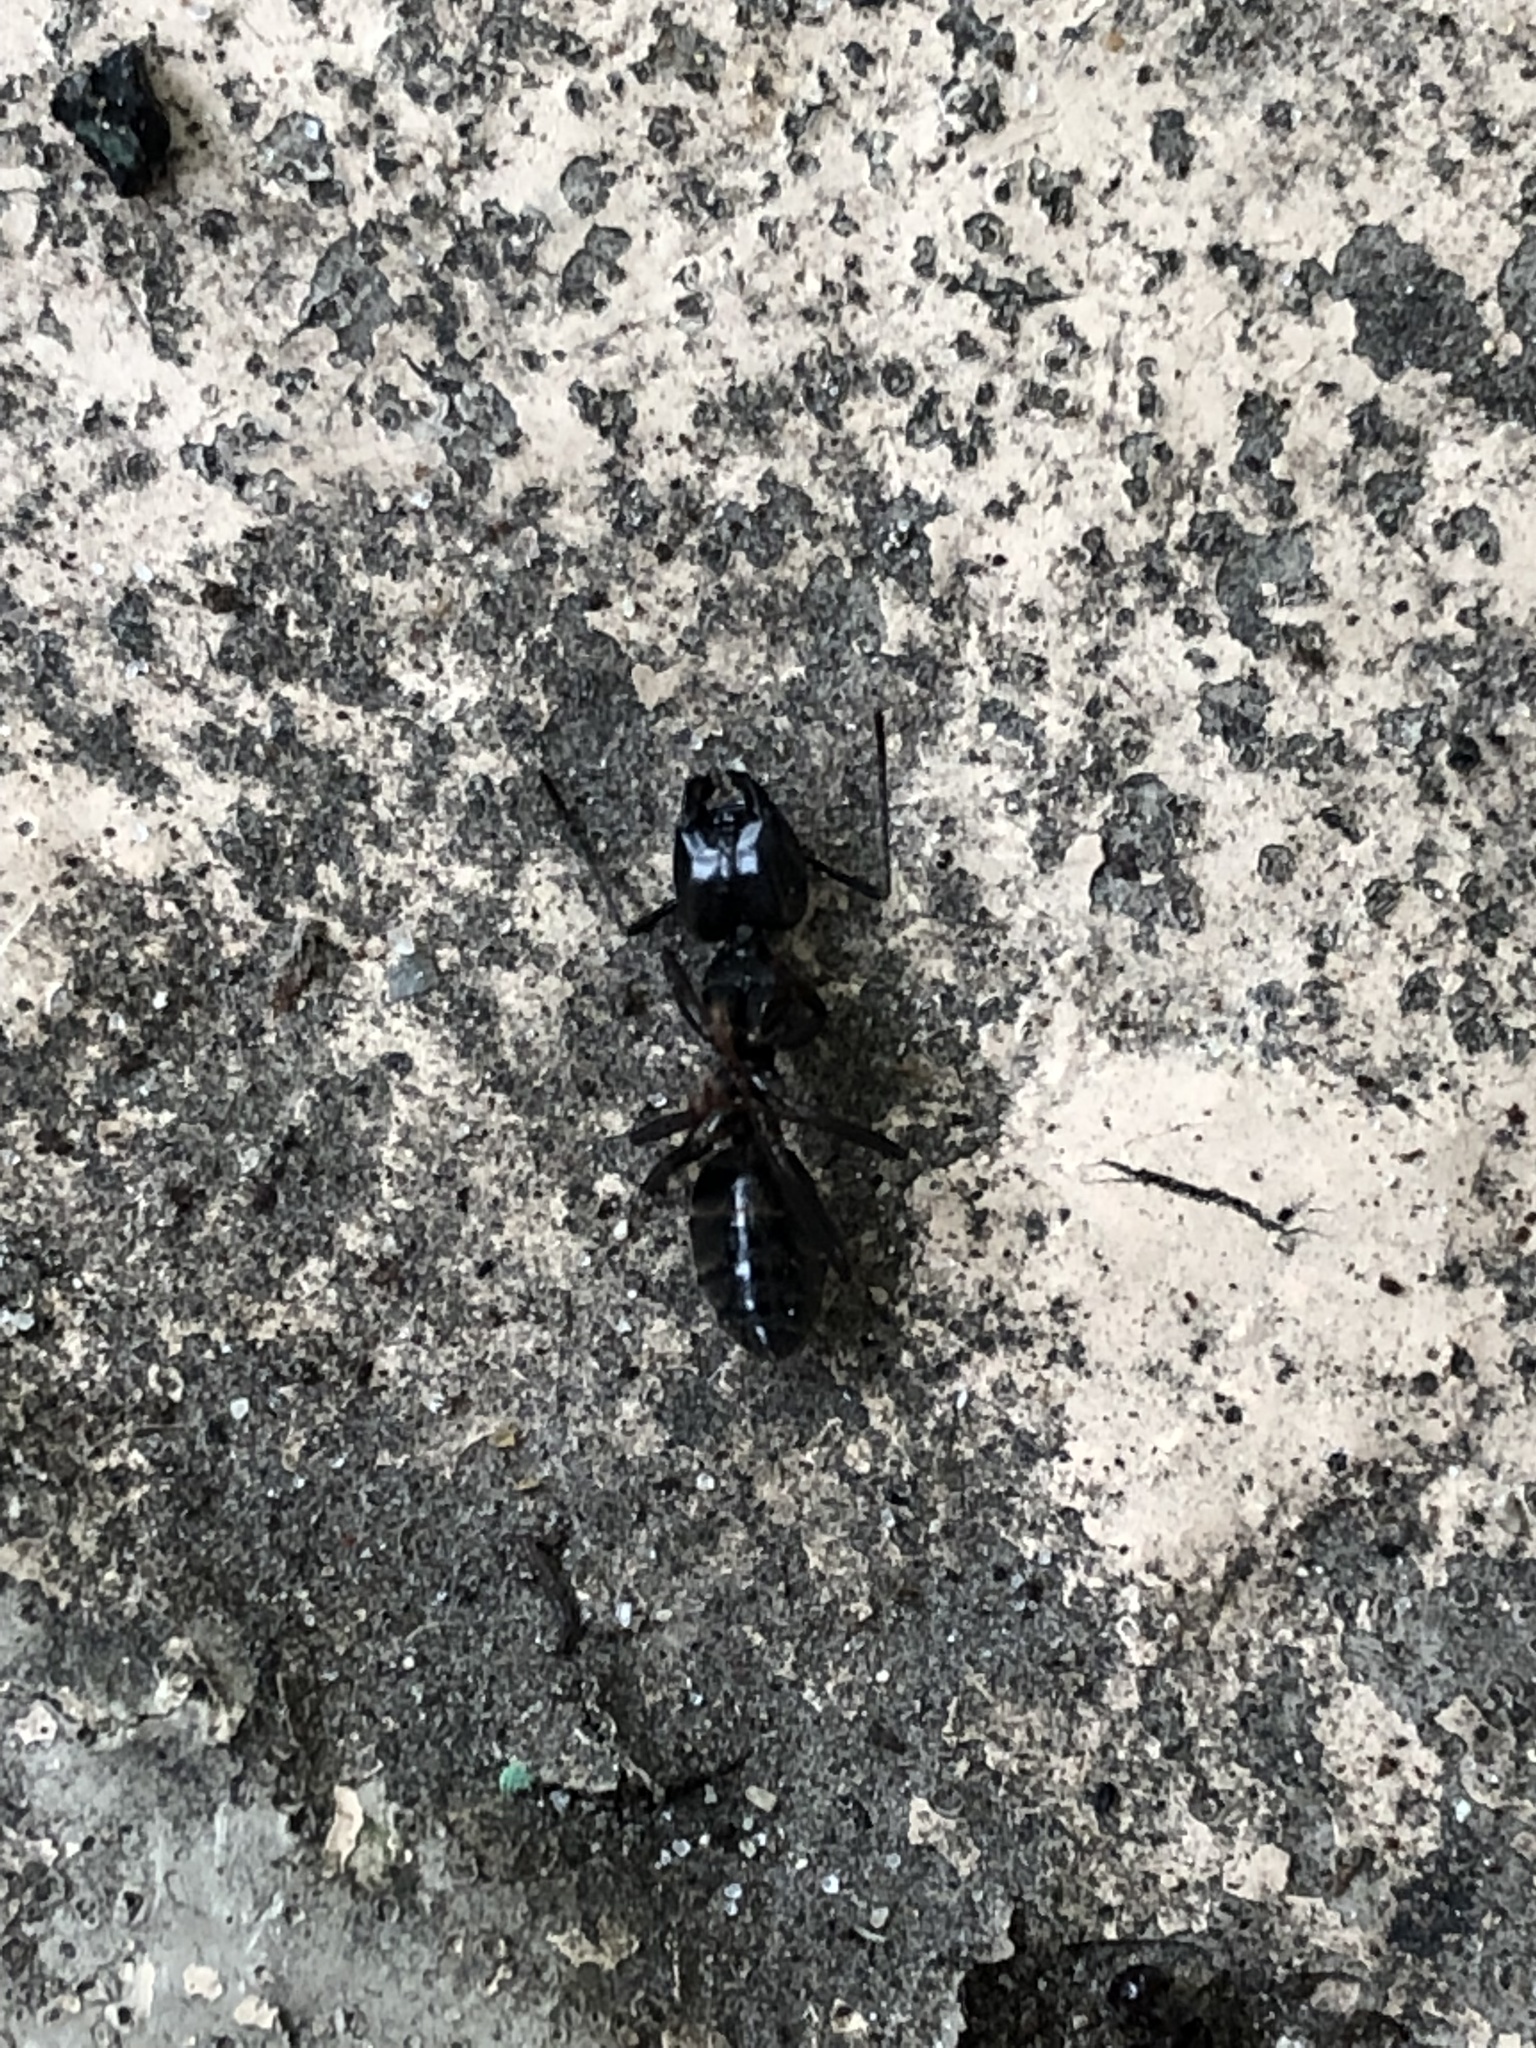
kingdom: Animalia
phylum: Arthropoda
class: Insecta
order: Hymenoptera
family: Formicidae
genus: Camponotus
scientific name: Camponotus nearcticus
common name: Smaller carpenter ant
